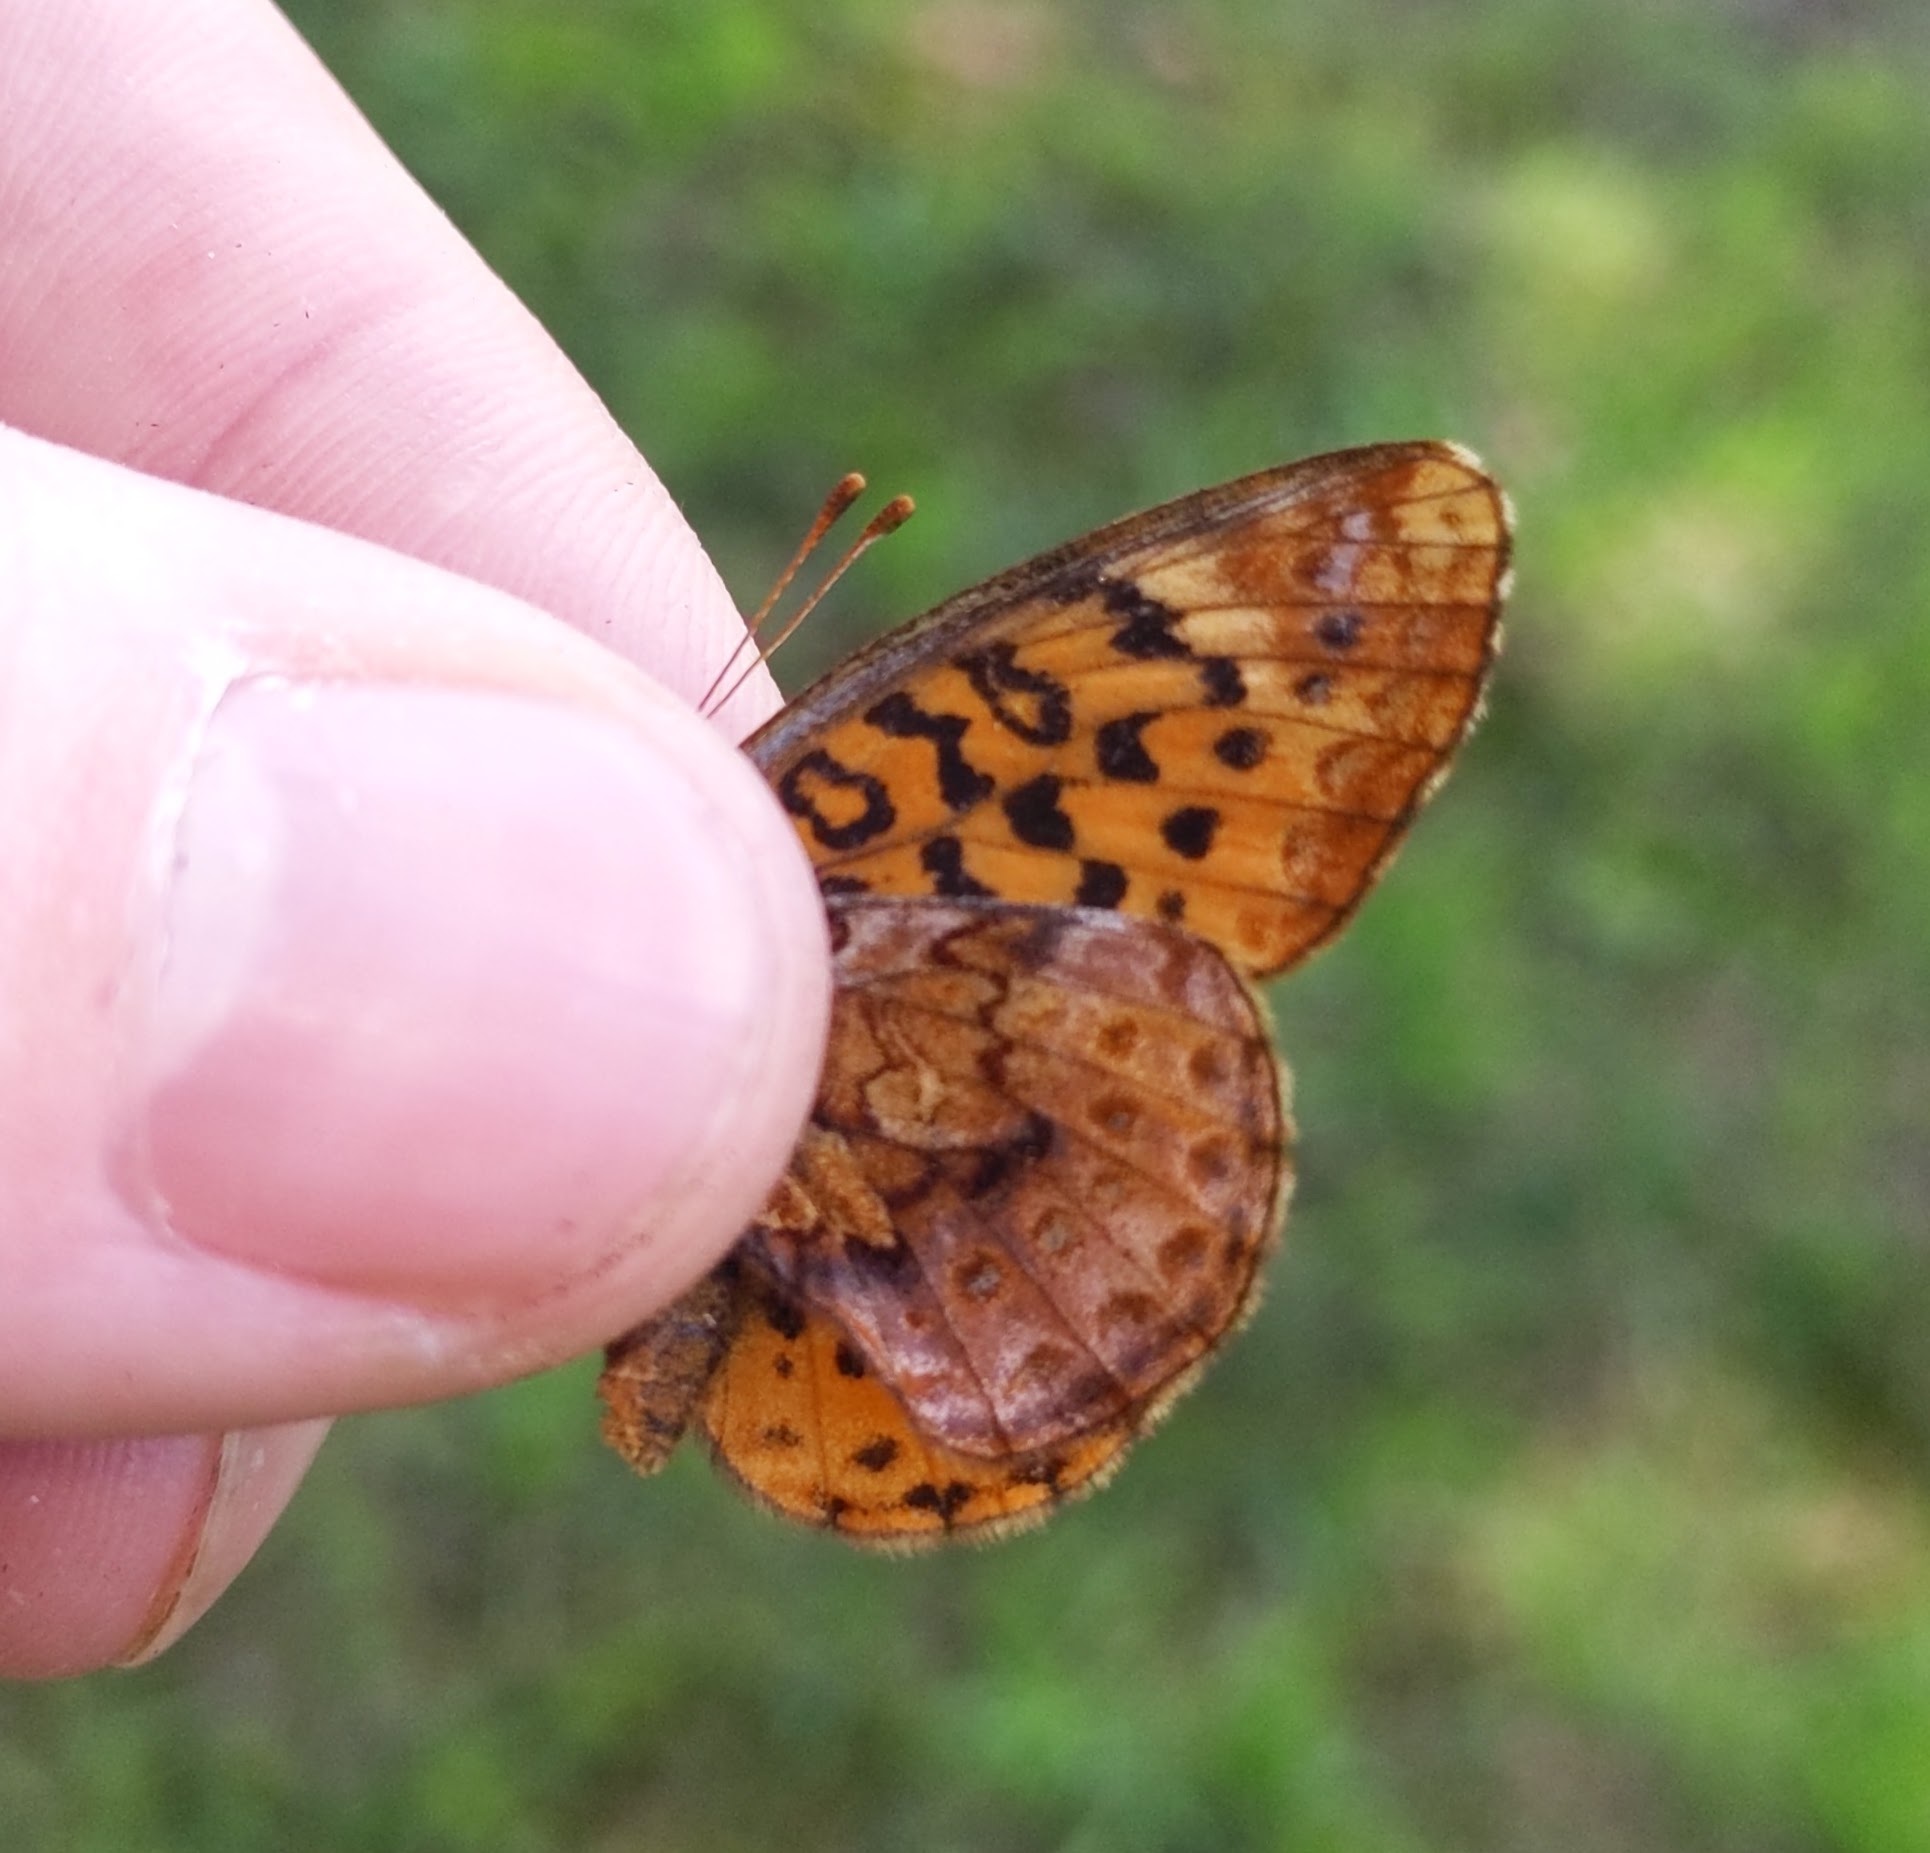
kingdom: Animalia
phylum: Arthropoda
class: Insecta
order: Lepidoptera
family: Nymphalidae
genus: Clossiana
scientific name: Clossiana toddi
